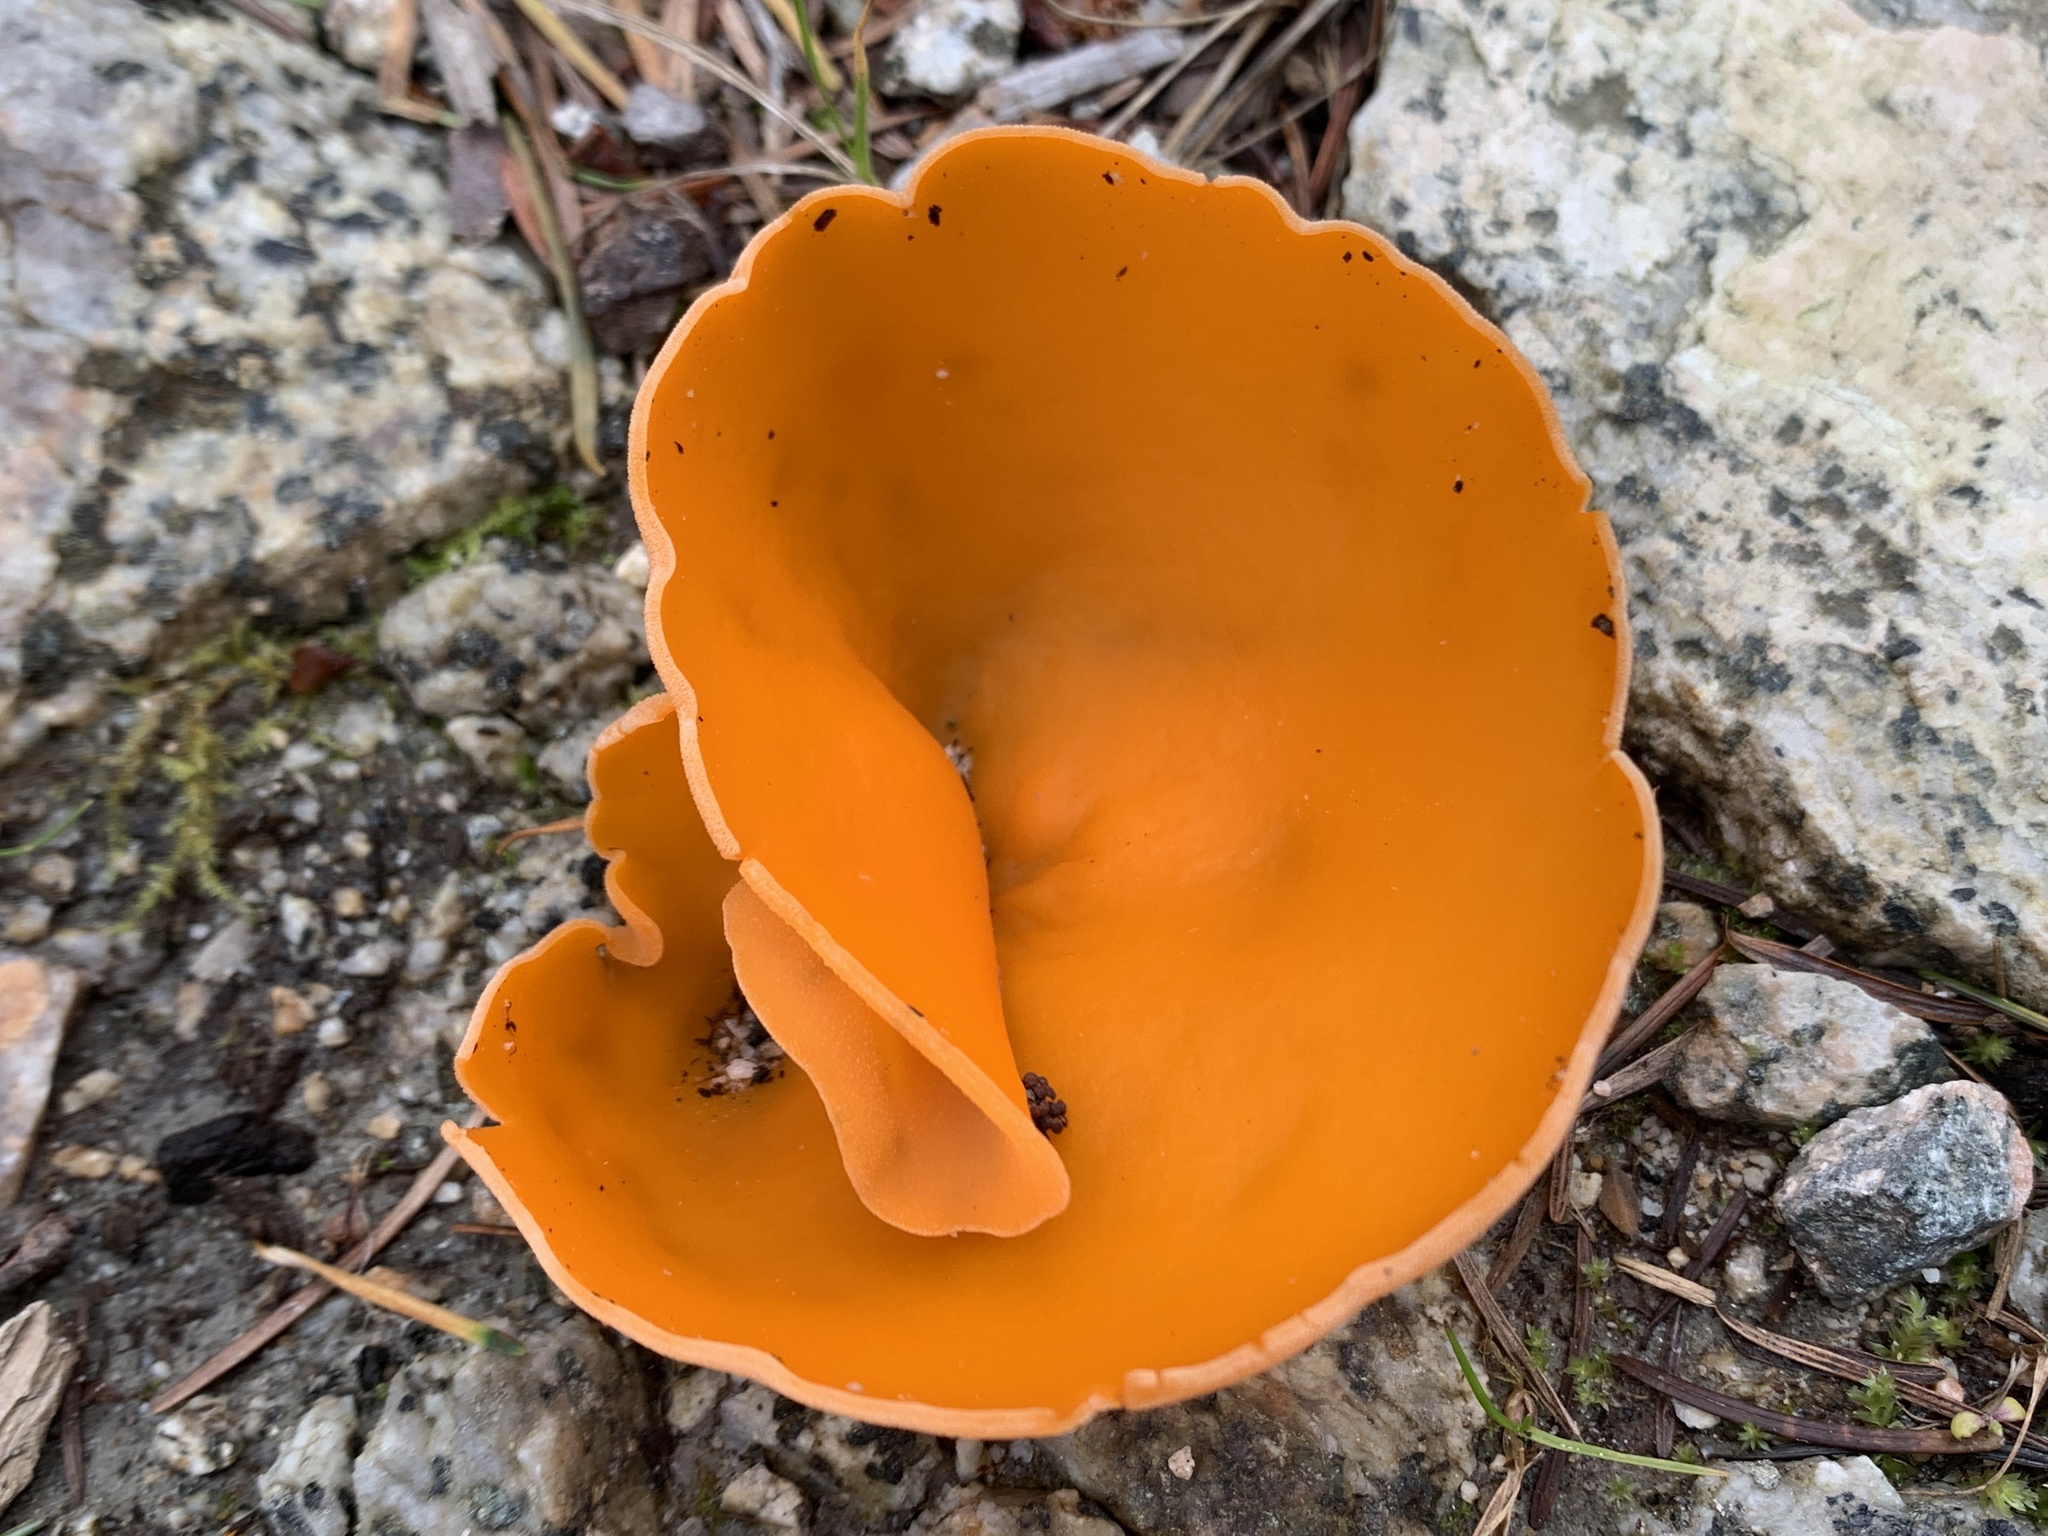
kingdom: Fungi
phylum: Ascomycota
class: Pezizomycetes
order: Pezizales
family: Pyronemataceae
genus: Aleuria
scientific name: Aleuria aurantia
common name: Orange peel fungus
